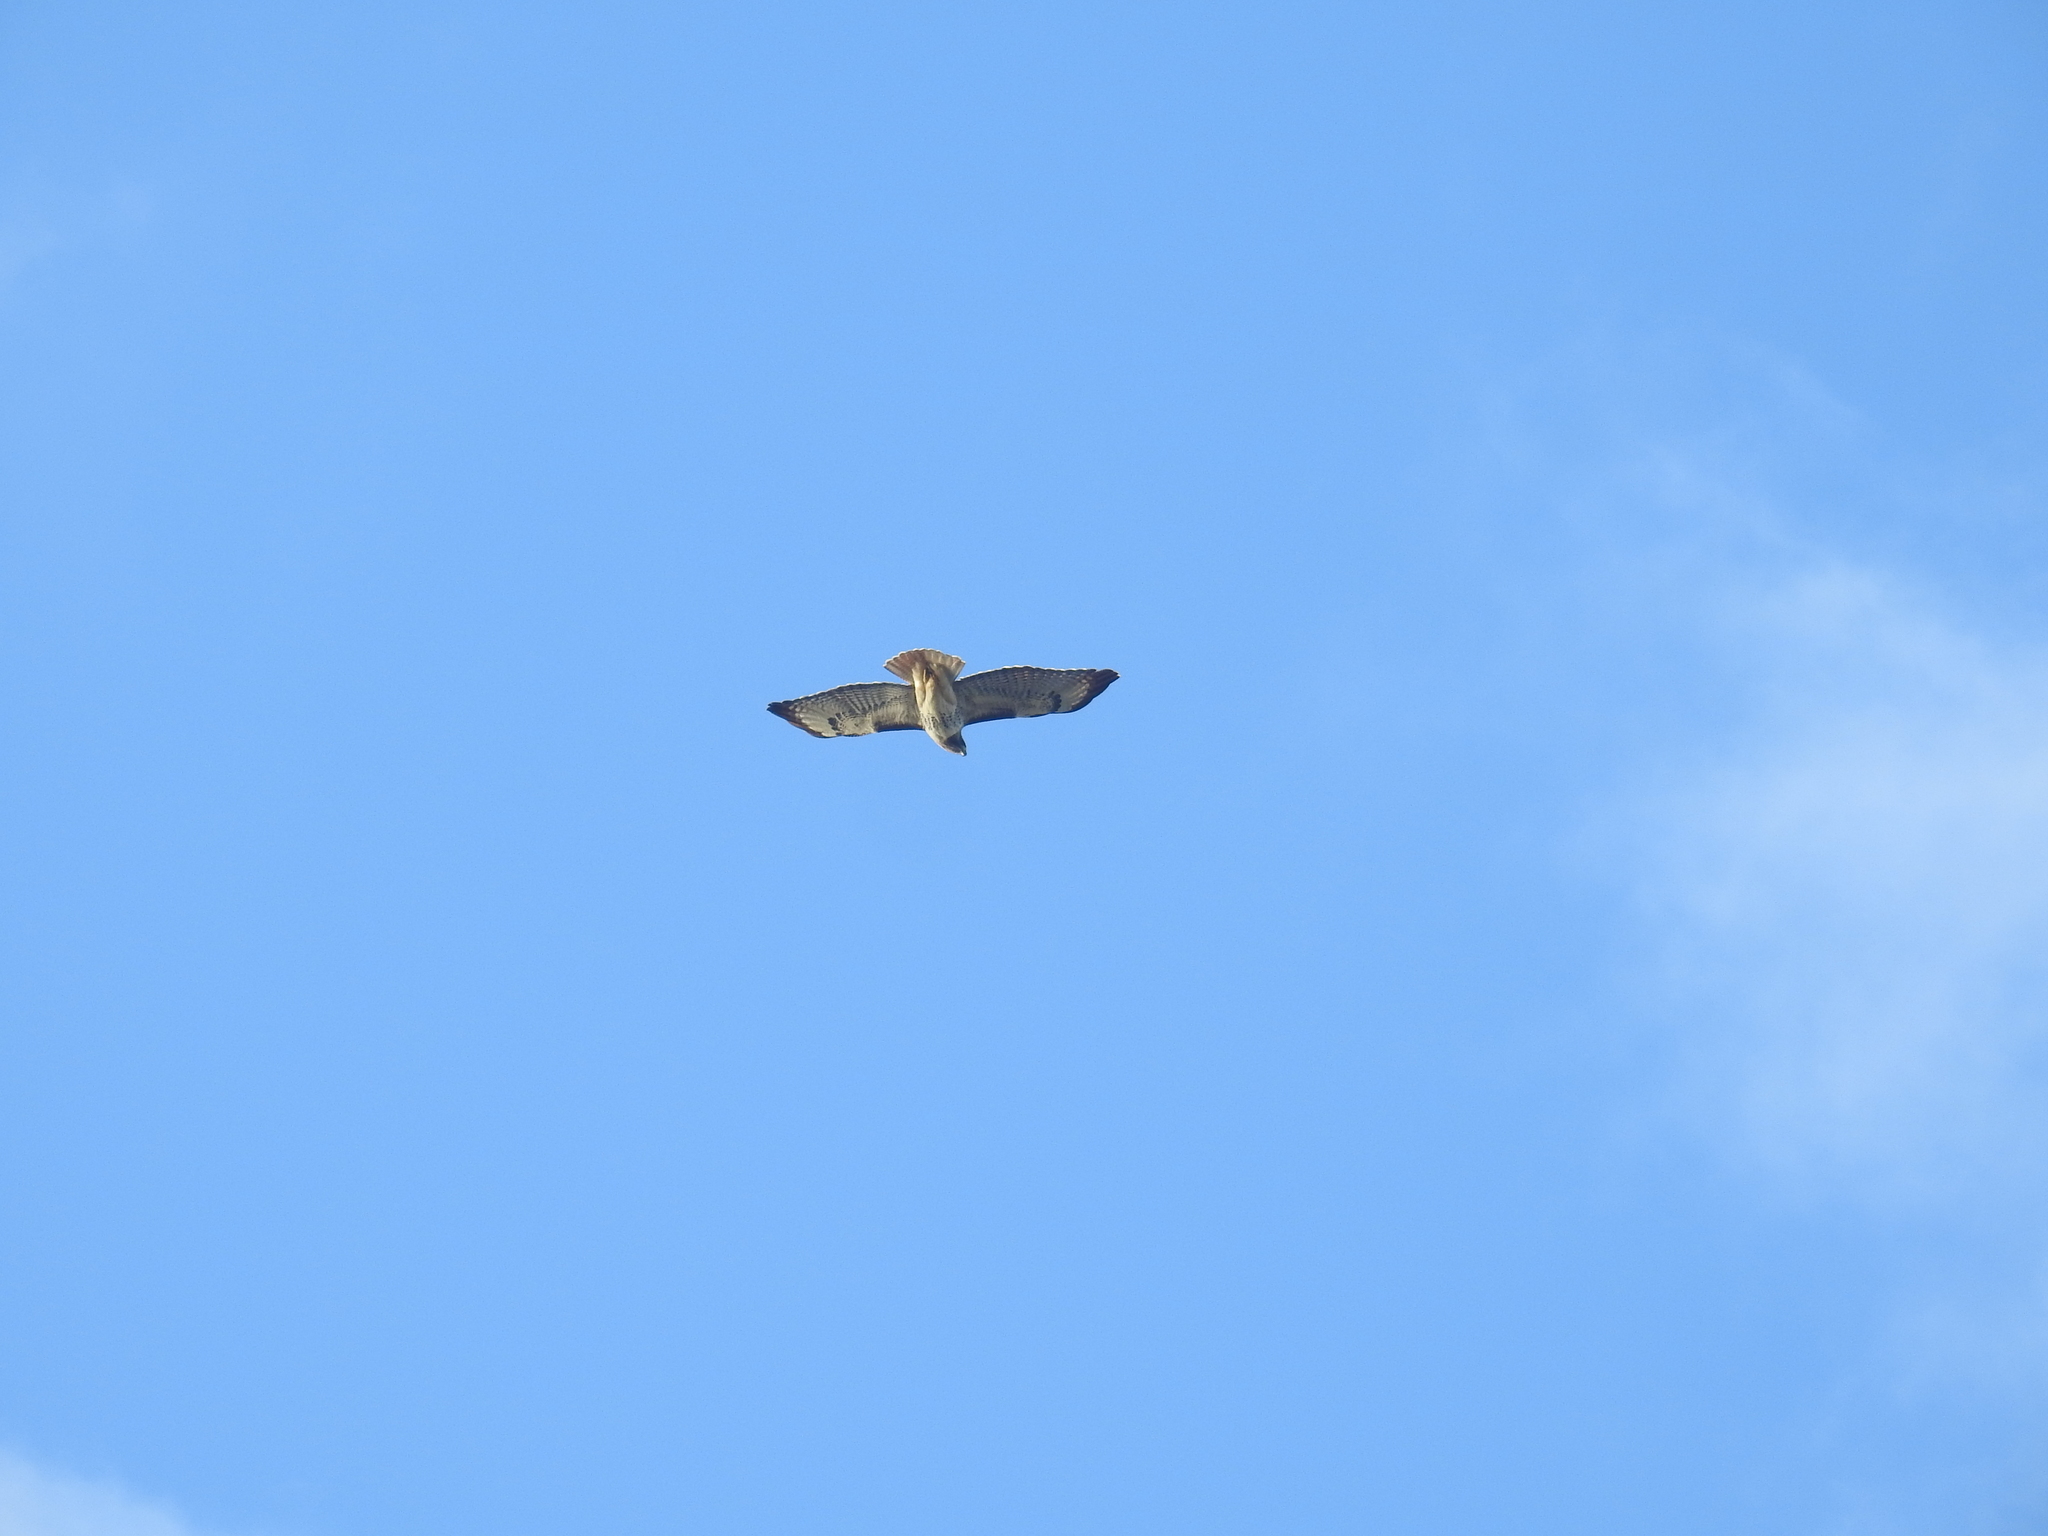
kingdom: Animalia
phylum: Chordata
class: Aves
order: Accipitriformes
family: Accipitridae
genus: Buteo
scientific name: Buteo jamaicensis
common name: Red-tailed hawk
